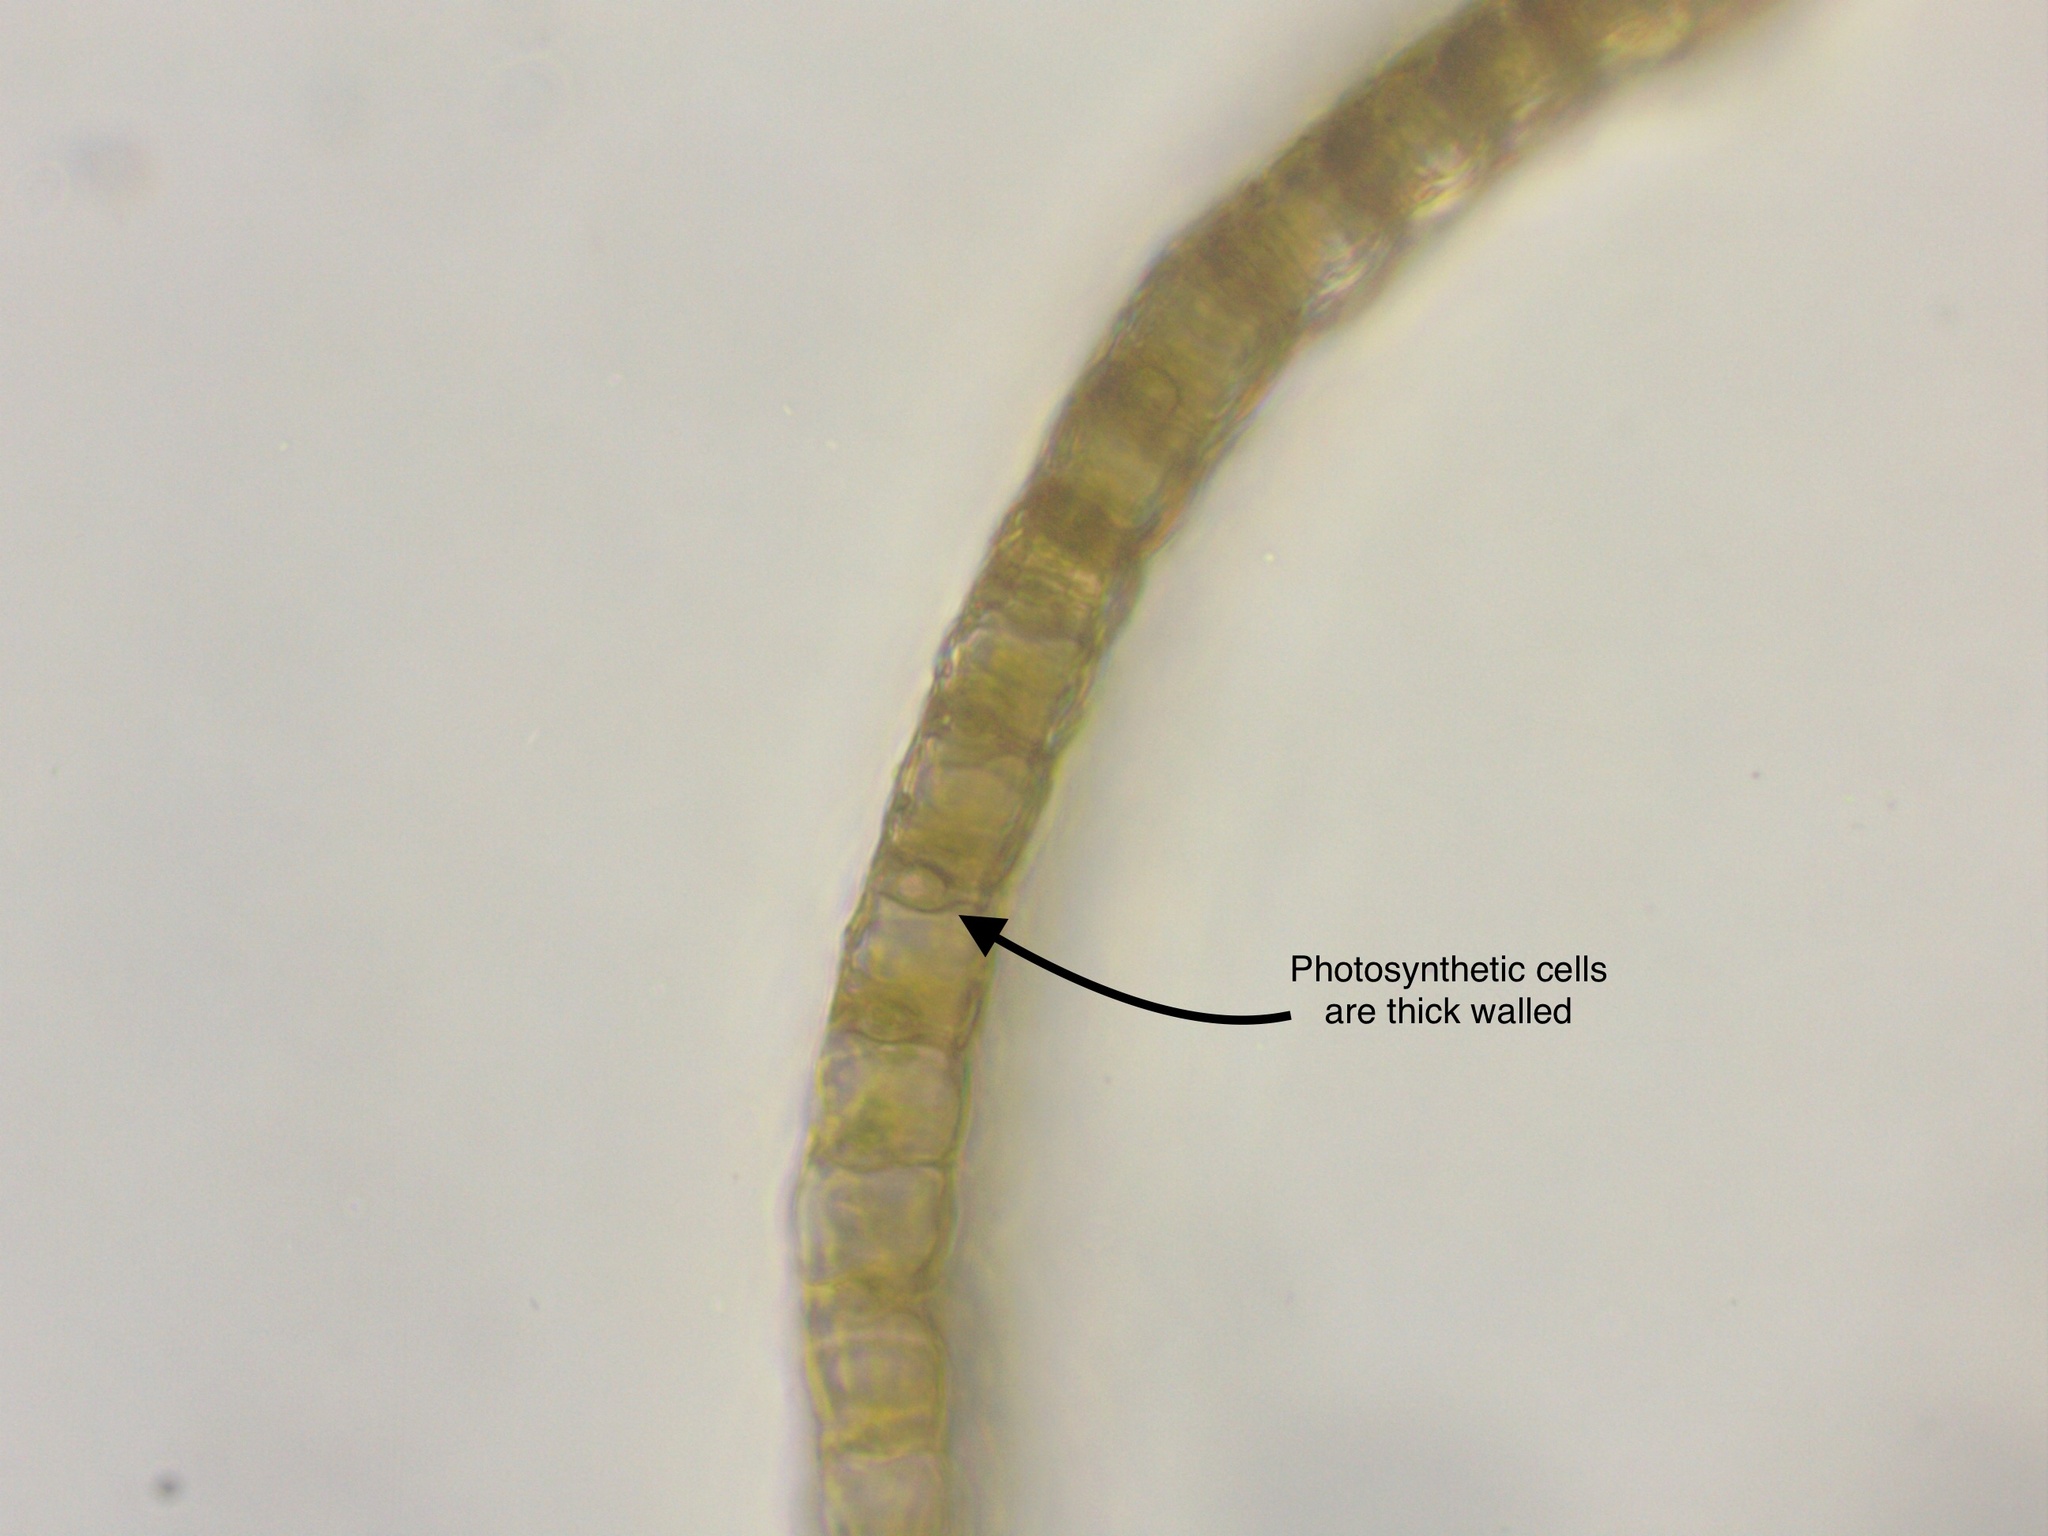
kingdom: Plantae
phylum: Bryophyta
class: Sphagnopsida
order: Sphagnales
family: Sphagnaceae
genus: Sphagnum
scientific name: Sphagnum subsecundum
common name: Orange peat moss
